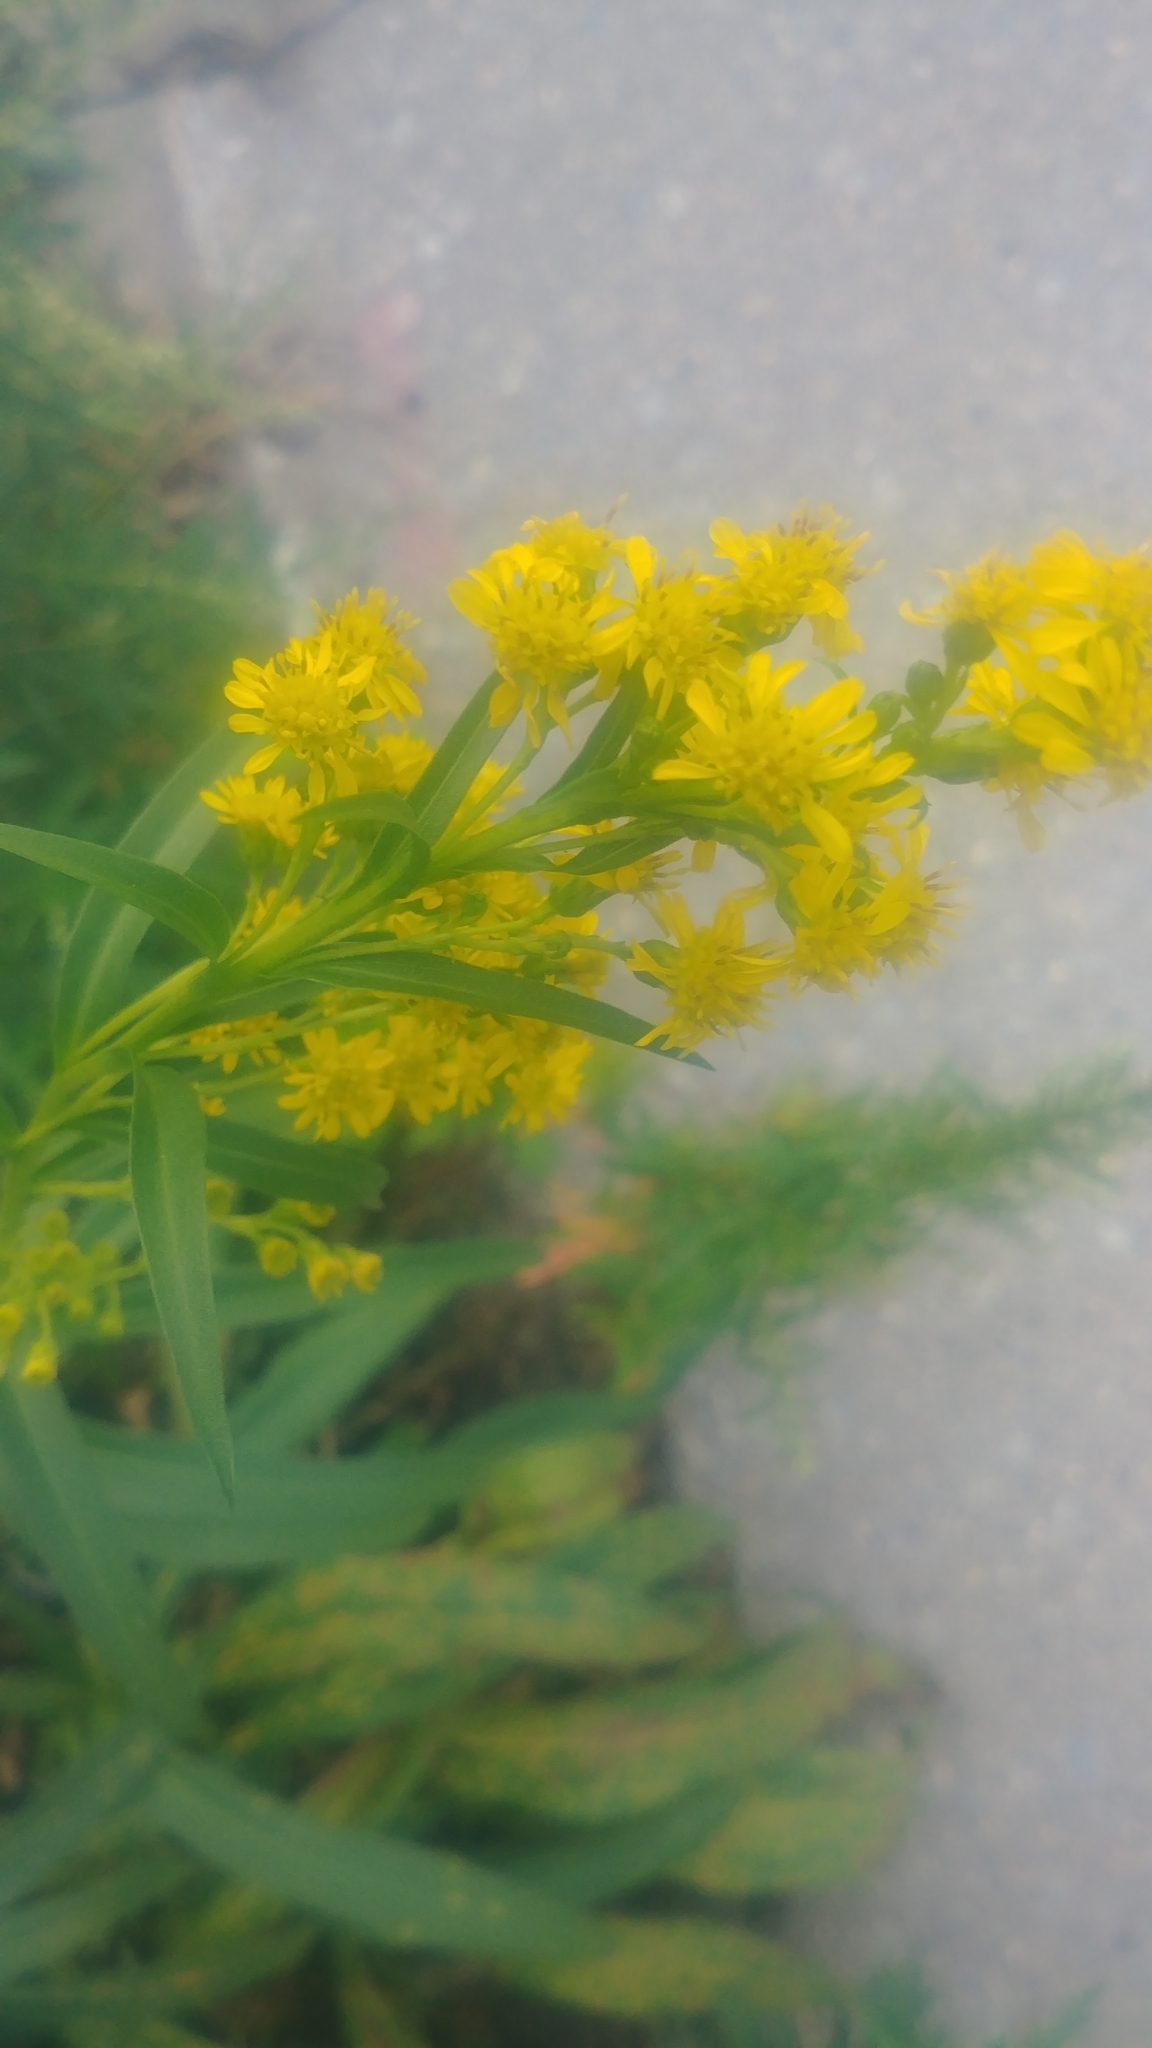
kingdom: Plantae
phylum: Tracheophyta
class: Magnoliopsida
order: Asterales
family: Asteraceae
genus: Solidago
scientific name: Solidago sempervirens
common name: Salt-marsh goldenrod
